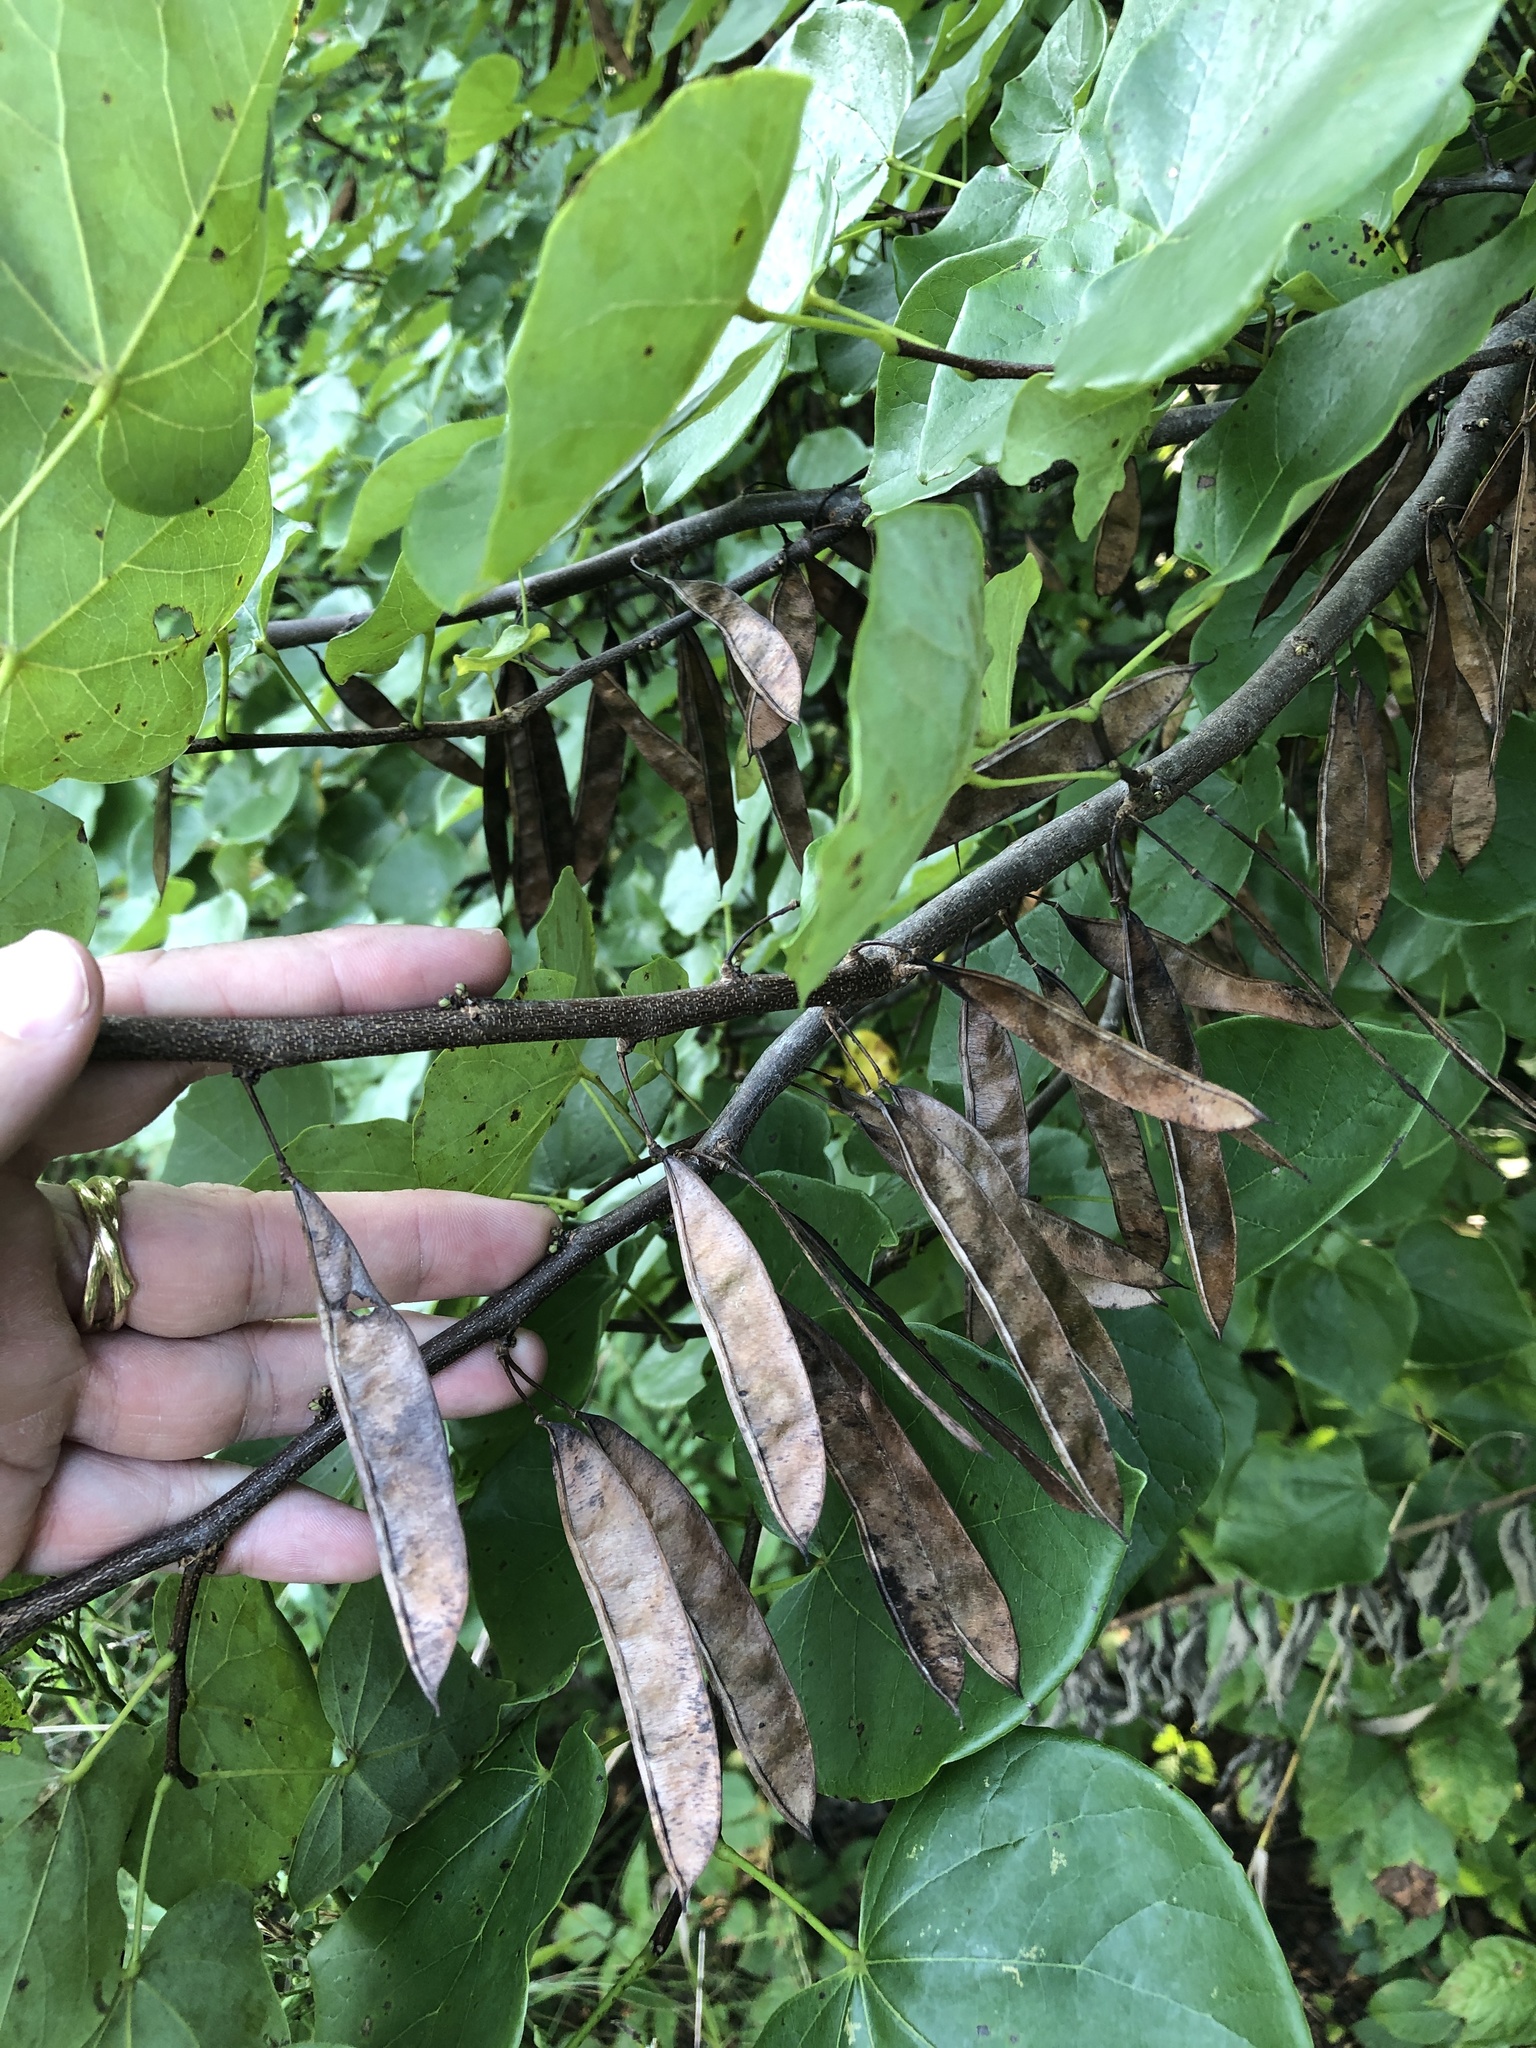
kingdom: Plantae
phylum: Tracheophyta
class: Magnoliopsida
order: Fabales
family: Fabaceae
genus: Cercis
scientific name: Cercis canadensis
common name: Eastern redbud
